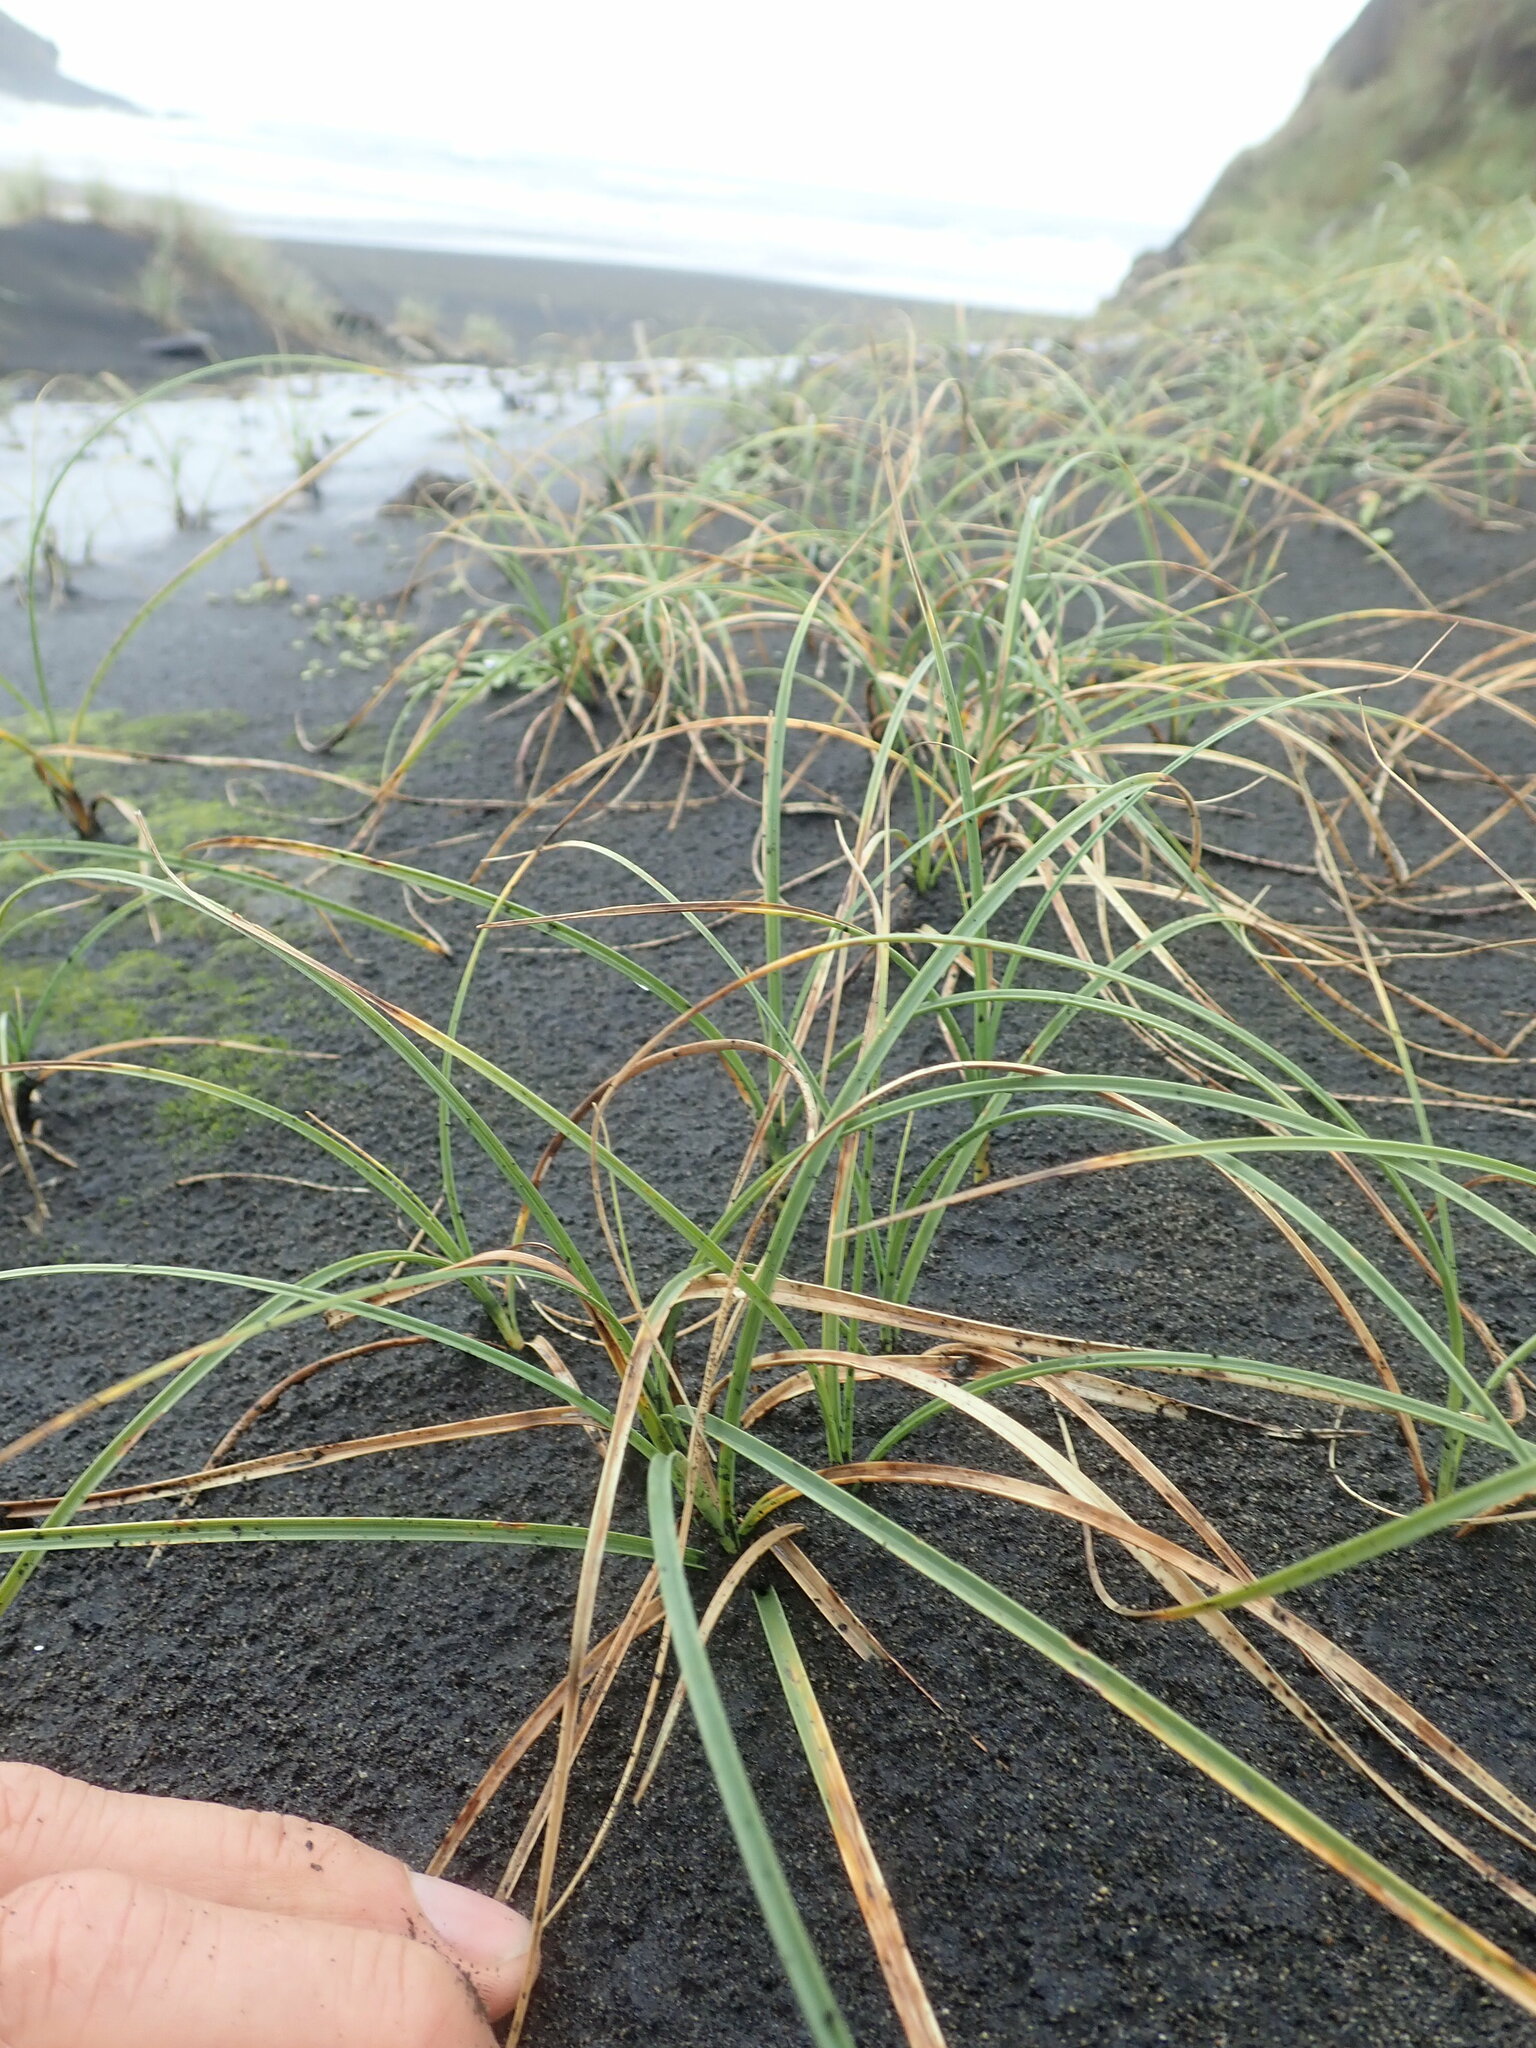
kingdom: Plantae
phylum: Tracheophyta
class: Liliopsida
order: Poales
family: Cyperaceae
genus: Carex
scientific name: Carex pumila
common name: Dwarf sedge
